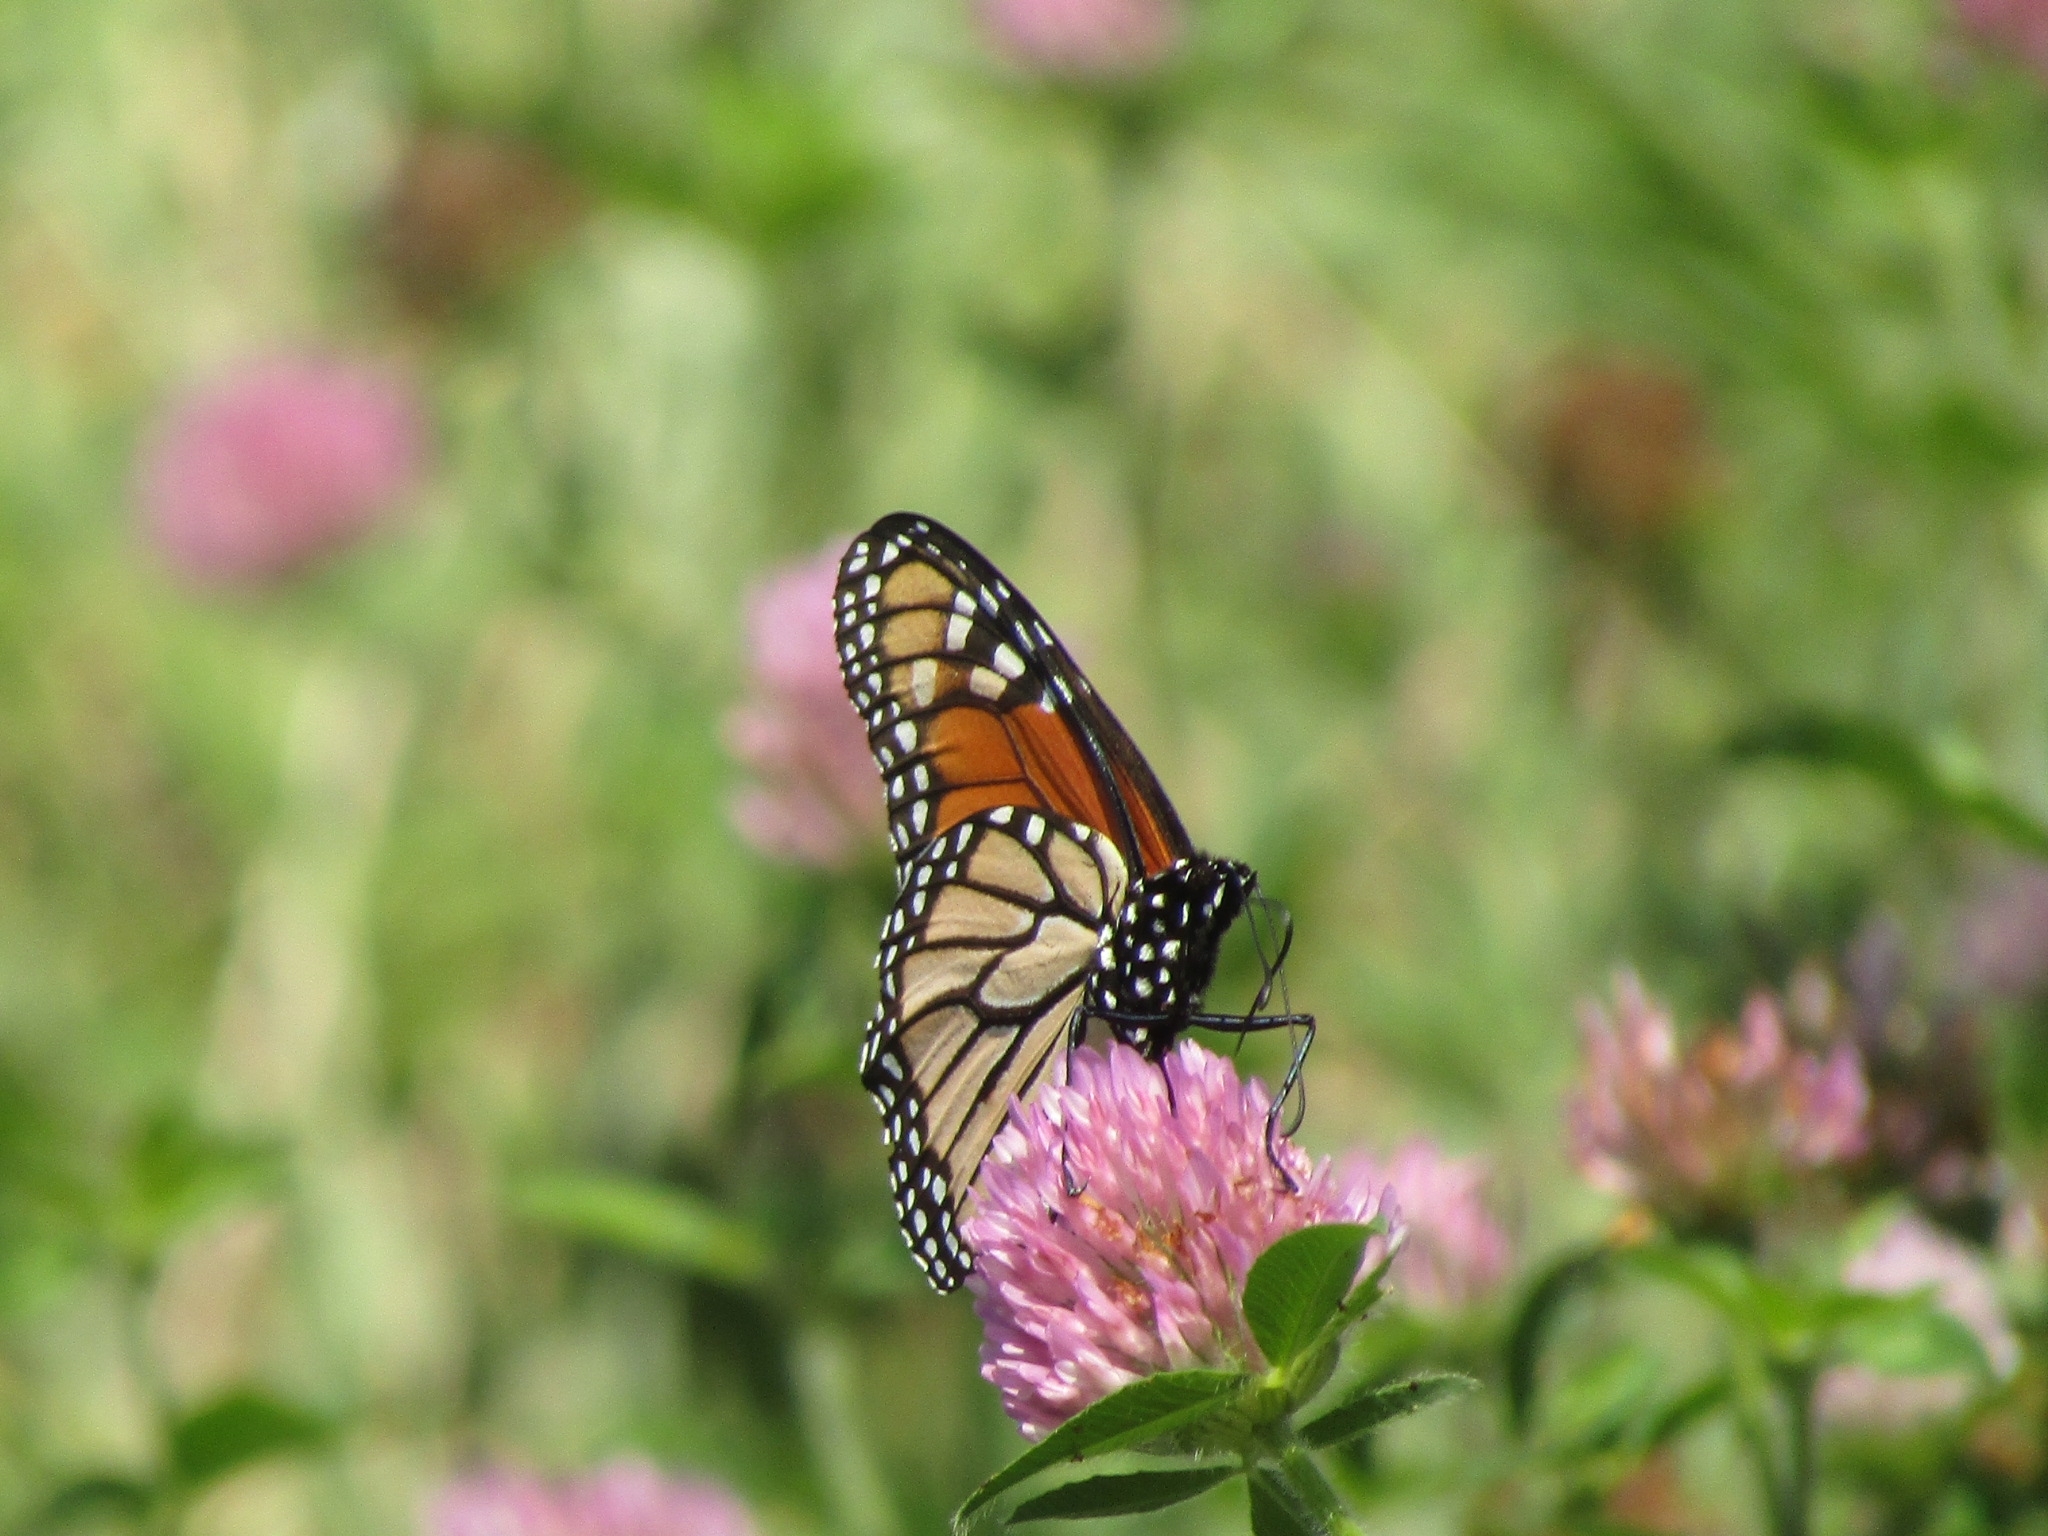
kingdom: Animalia
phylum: Arthropoda
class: Insecta
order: Lepidoptera
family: Nymphalidae
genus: Danaus
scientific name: Danaus plexippus
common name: Monarch
